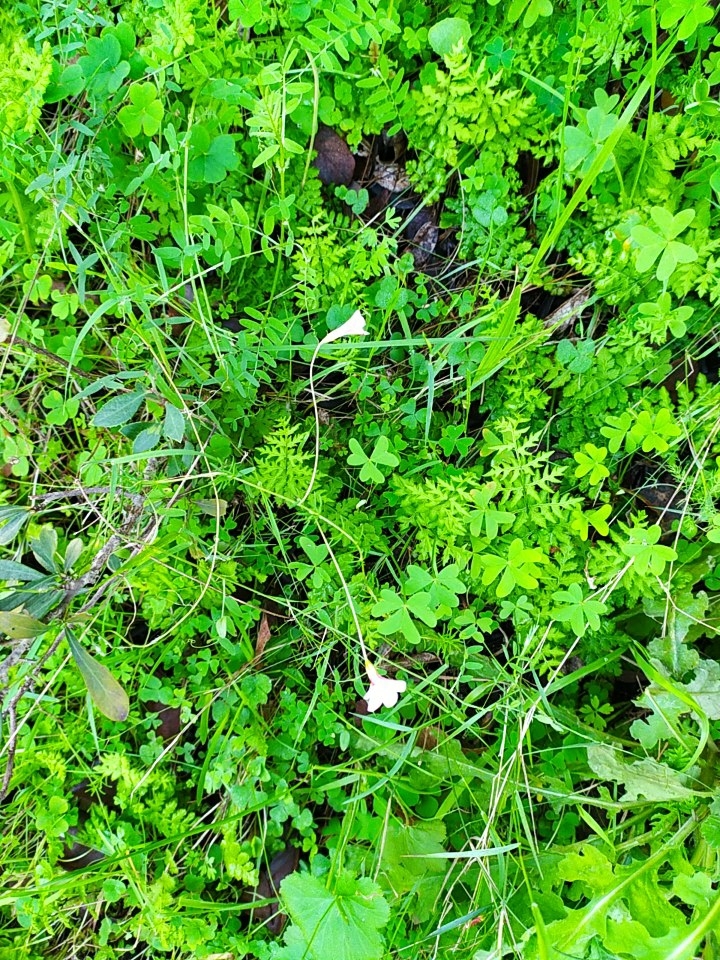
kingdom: Plantae
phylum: Tracheophyta
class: Magnoliopsida
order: Oxalidales
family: Oxalidaceae
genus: Oxalis
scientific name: Oxalis tenuifolia
